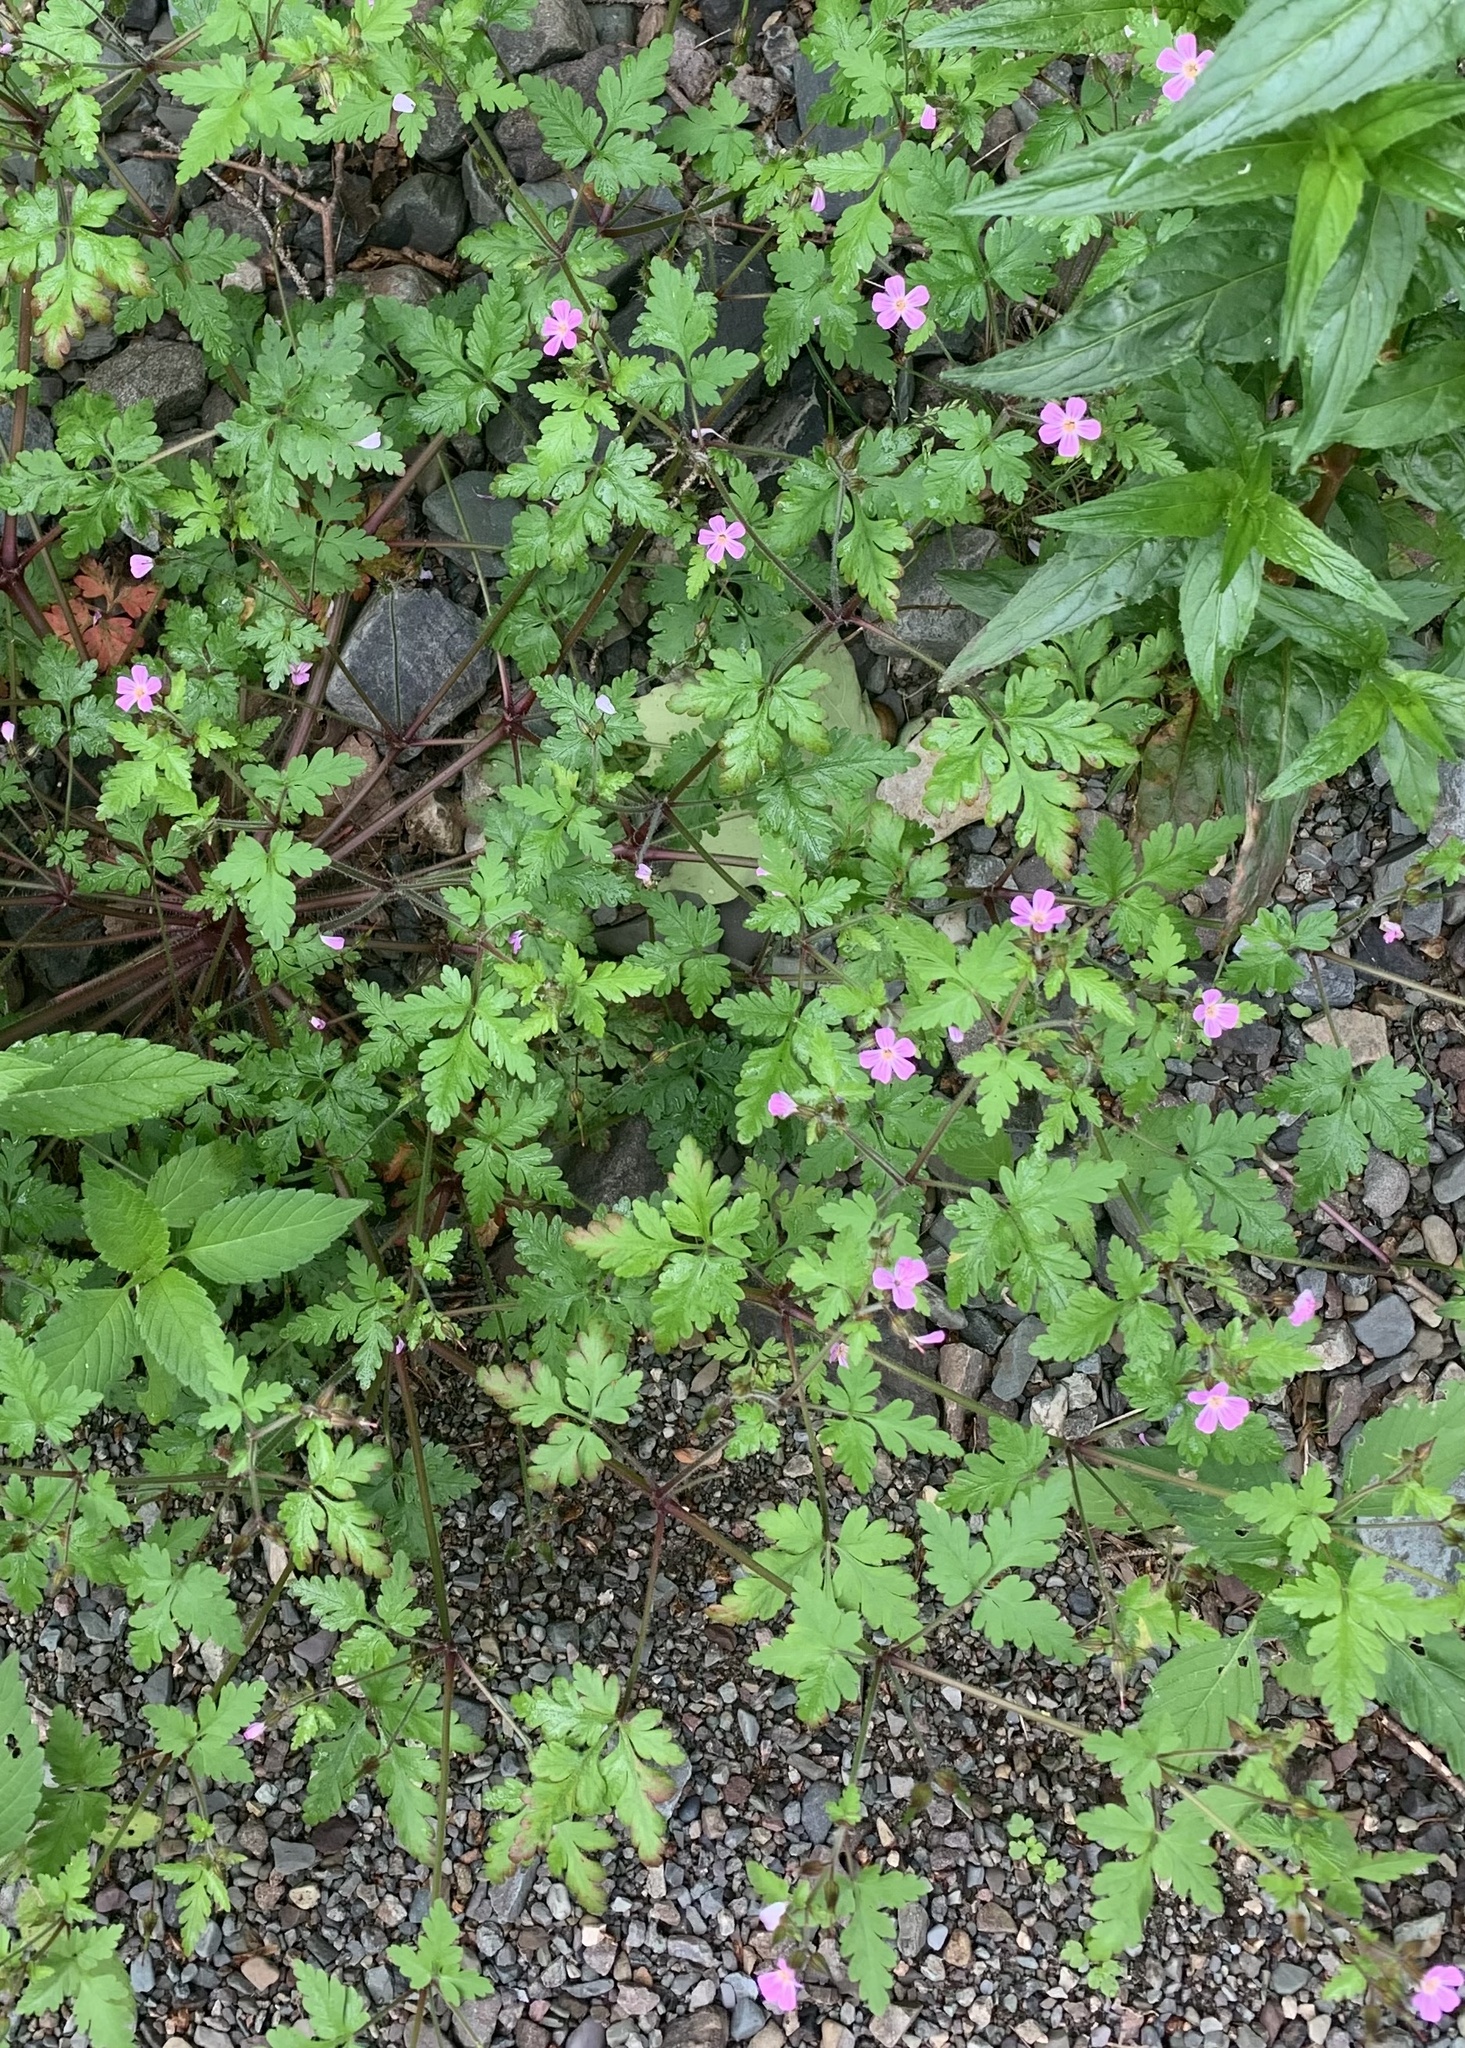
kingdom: Plantae
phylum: Tracheophyta
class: Magnoliopsida
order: Geraniales
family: Geraniaceae
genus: Geranium
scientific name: Geranium robertianum
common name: Herb-robert
